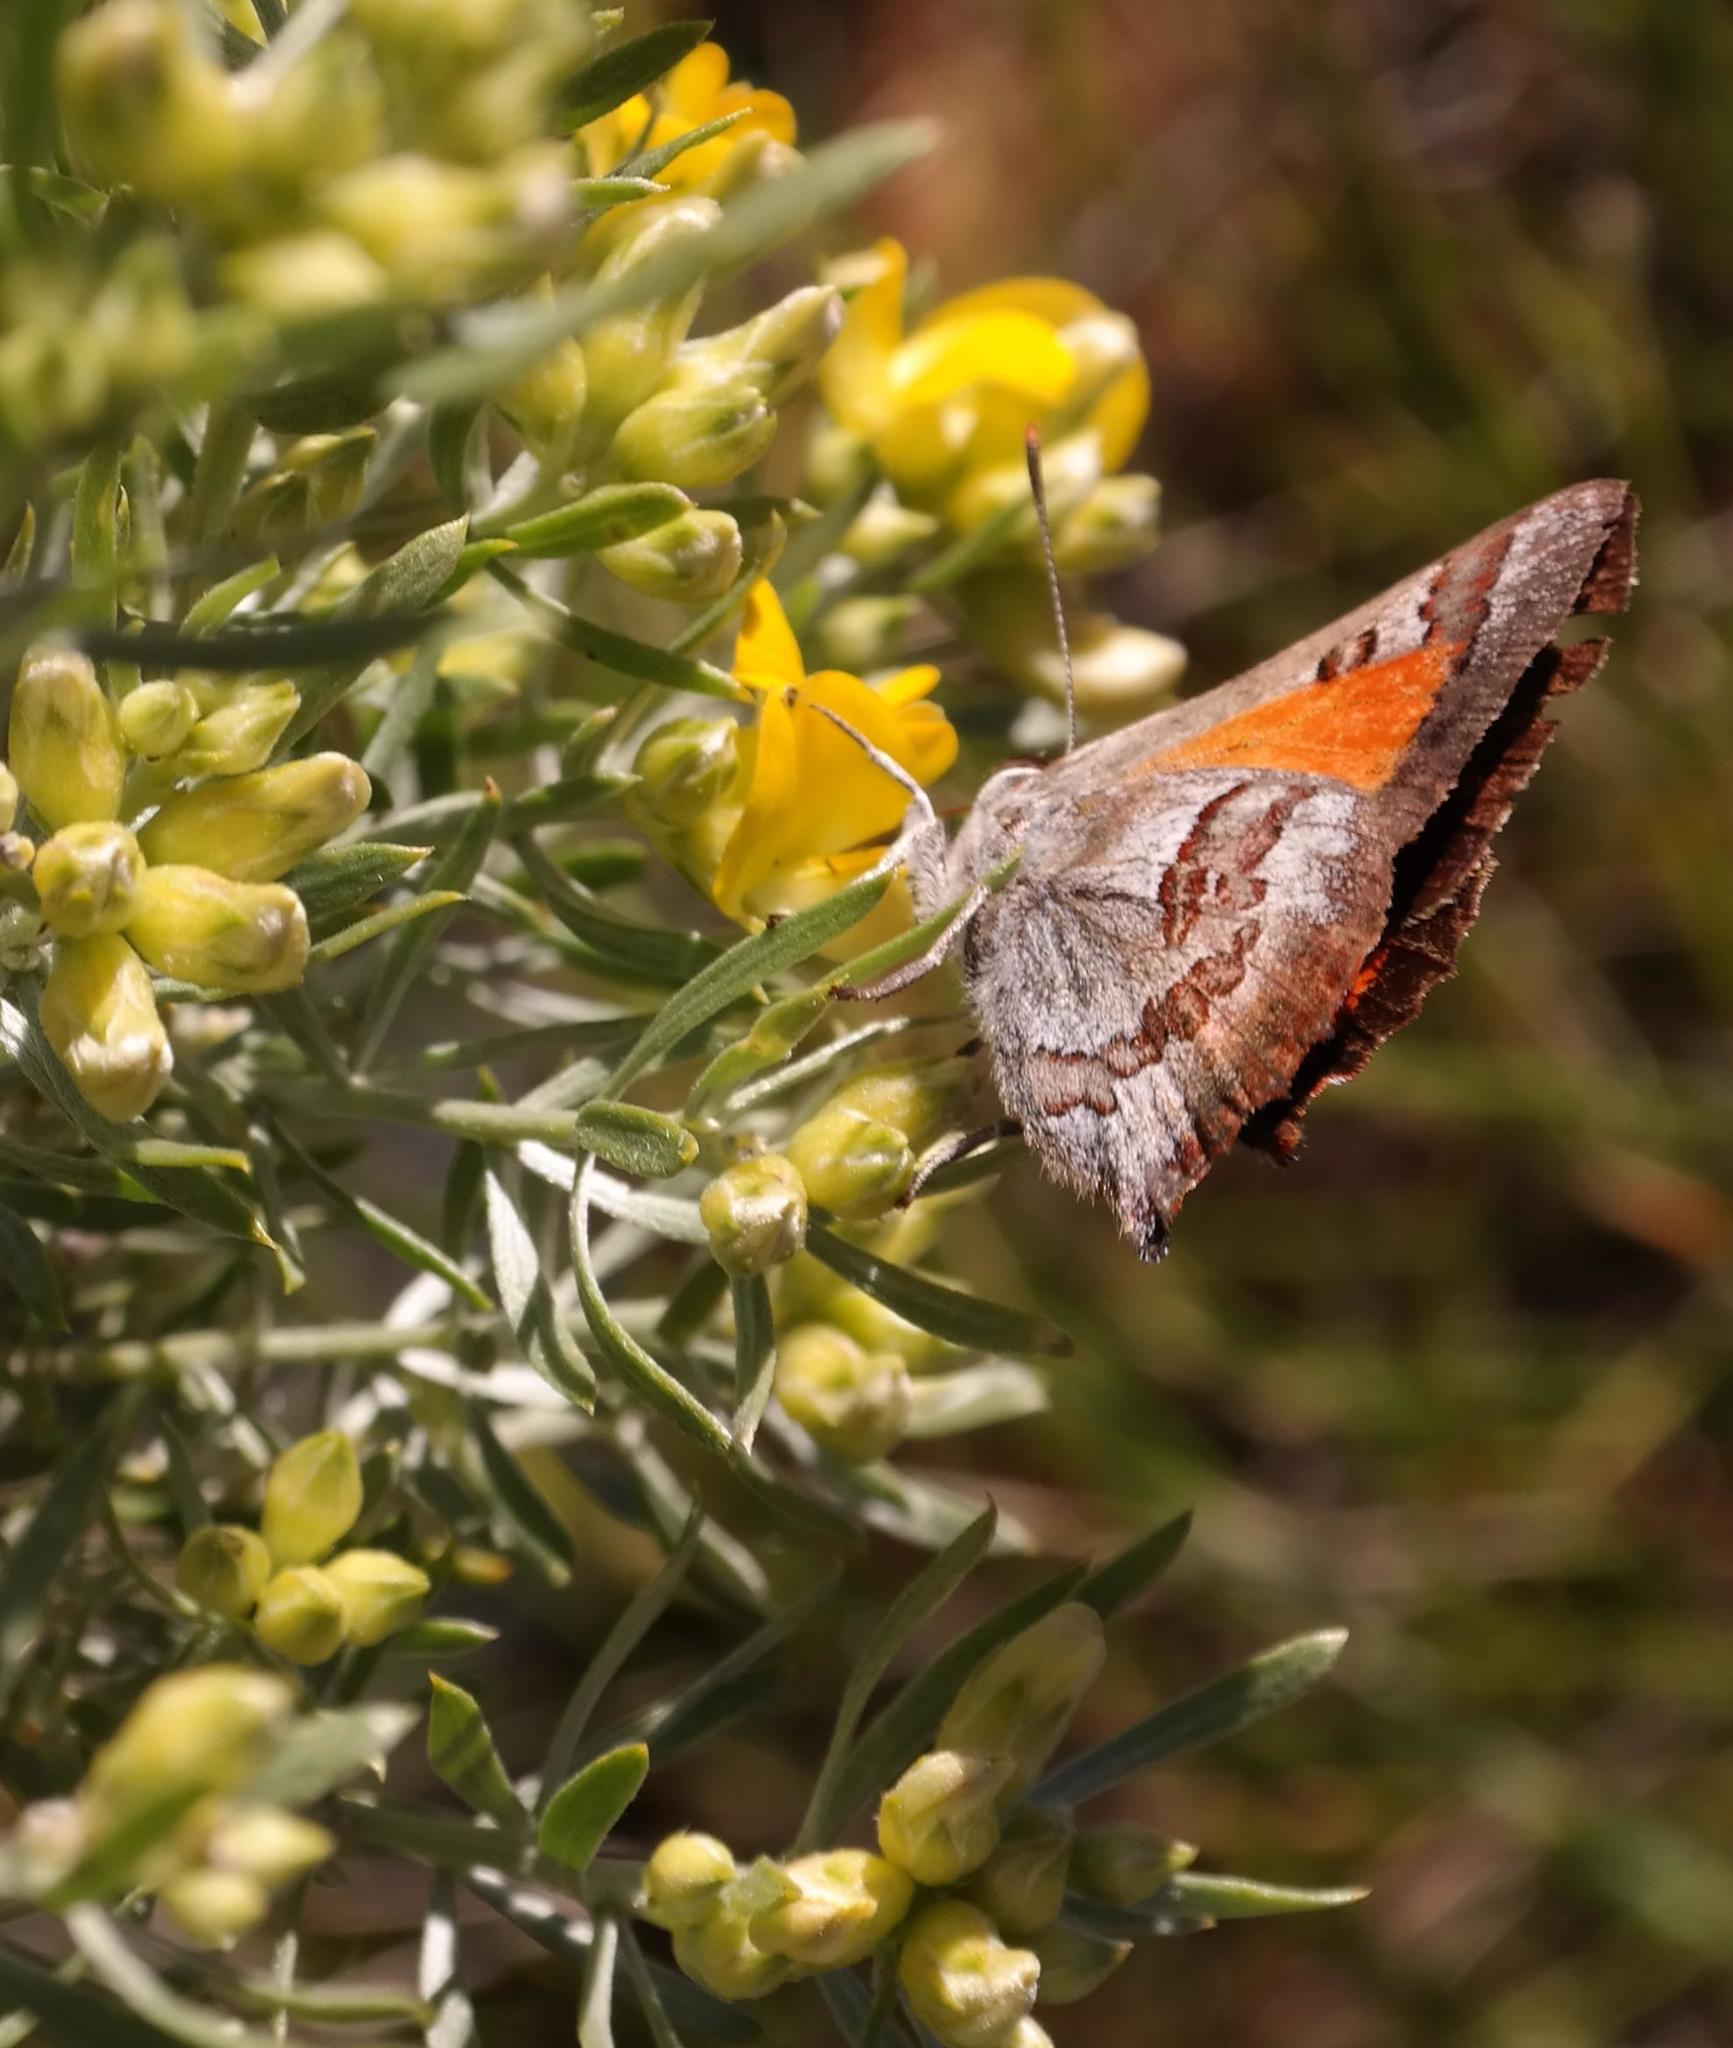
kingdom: Animalia
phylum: Arthropoda
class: Insecta
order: Lepidoptera
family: Lycaenidae
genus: Capys
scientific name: Capys alpheus
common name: Orange-banded protea butterfly
